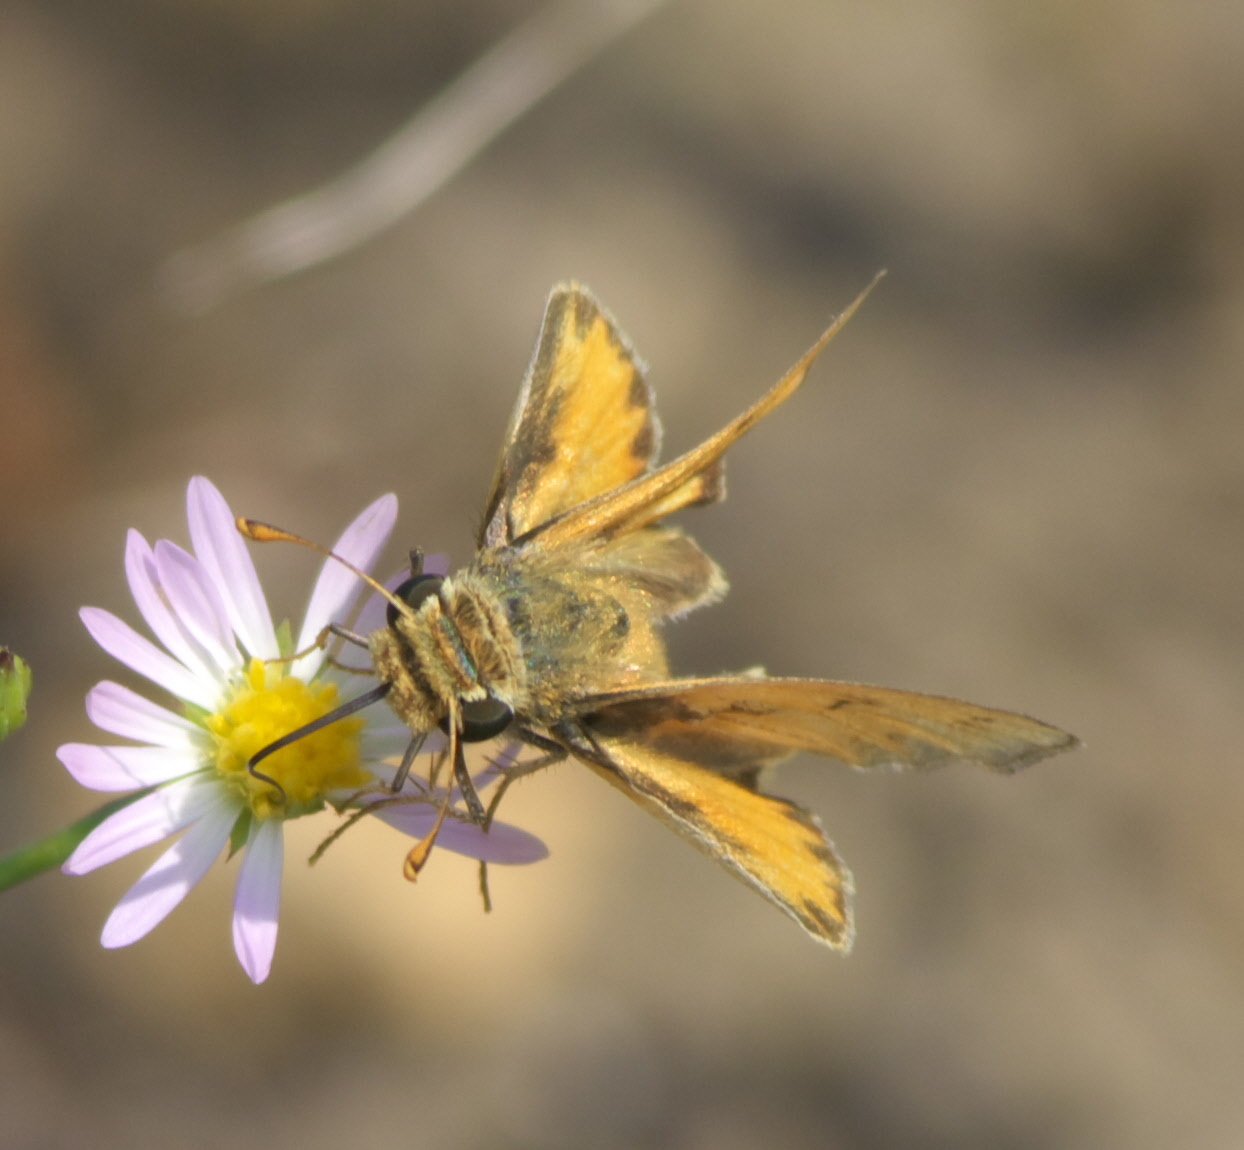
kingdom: Animalia
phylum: Arthropoda
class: Insecta
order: Lepidoptera
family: Hesperiidae
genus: Hylephila
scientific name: Hylephila phyleus
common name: Fiery skipper
